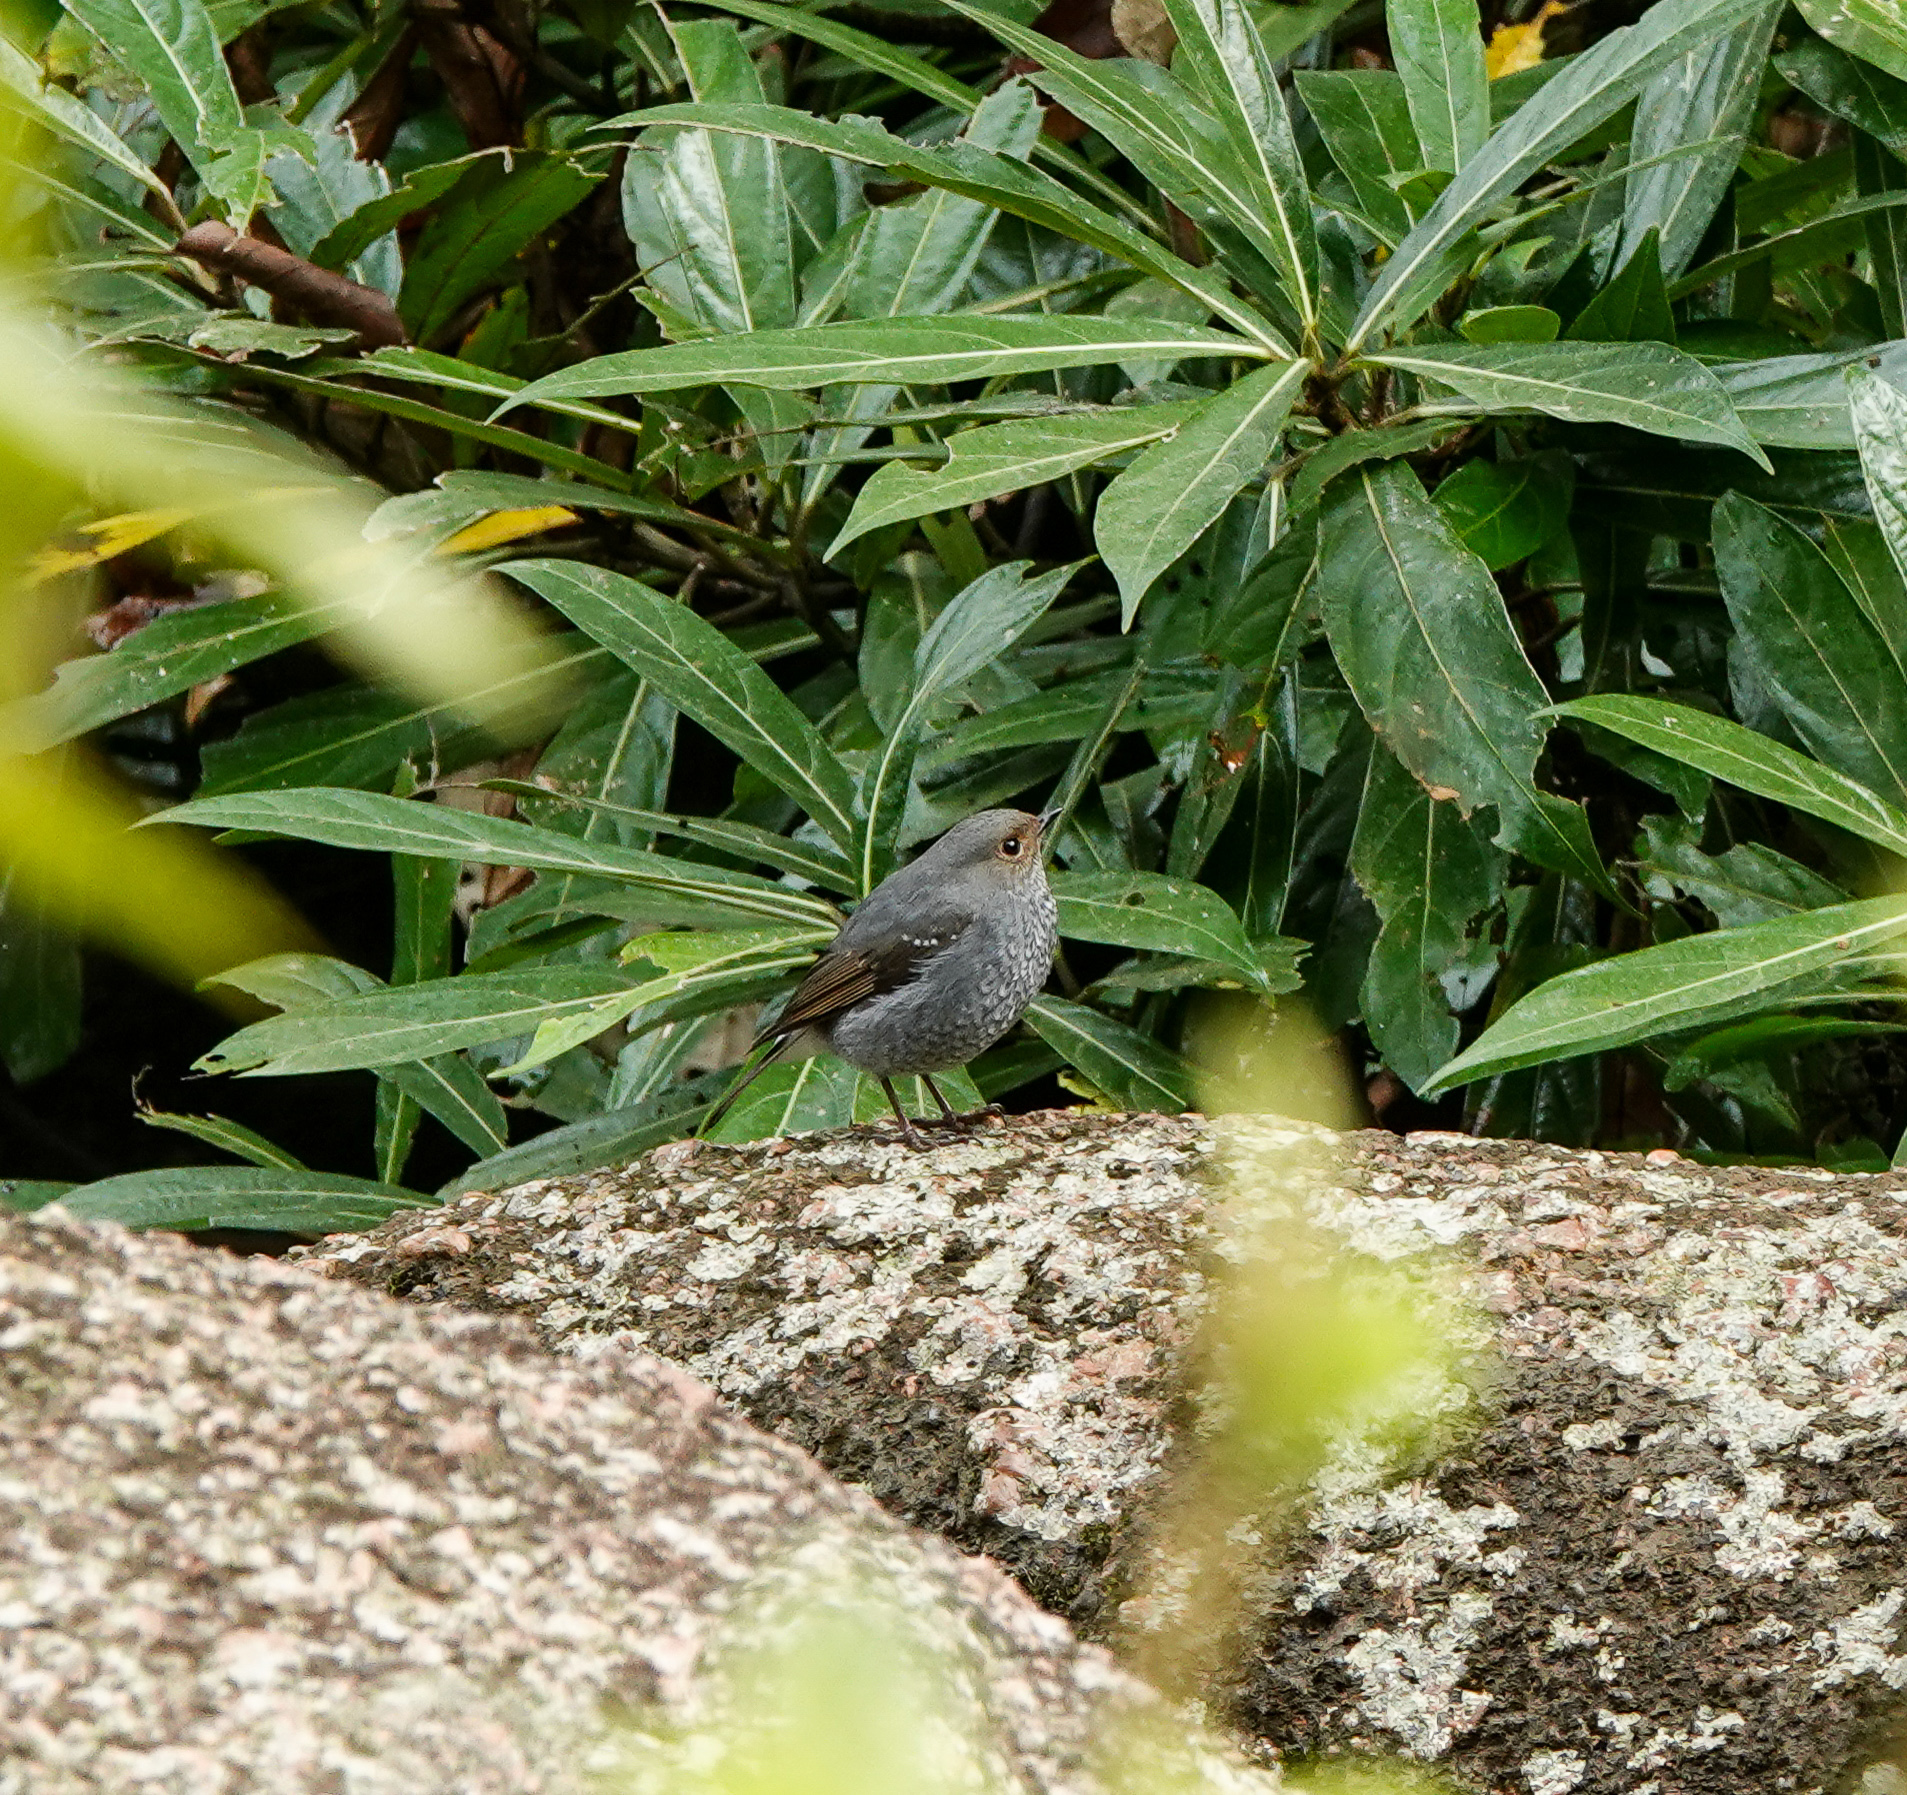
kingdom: Animalia
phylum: Chordata
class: Aves
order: Passeriformes
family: Muscicapidae
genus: Phoenicurus
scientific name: Phoenicurus fuliginosus
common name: Plumbeous water redstart
